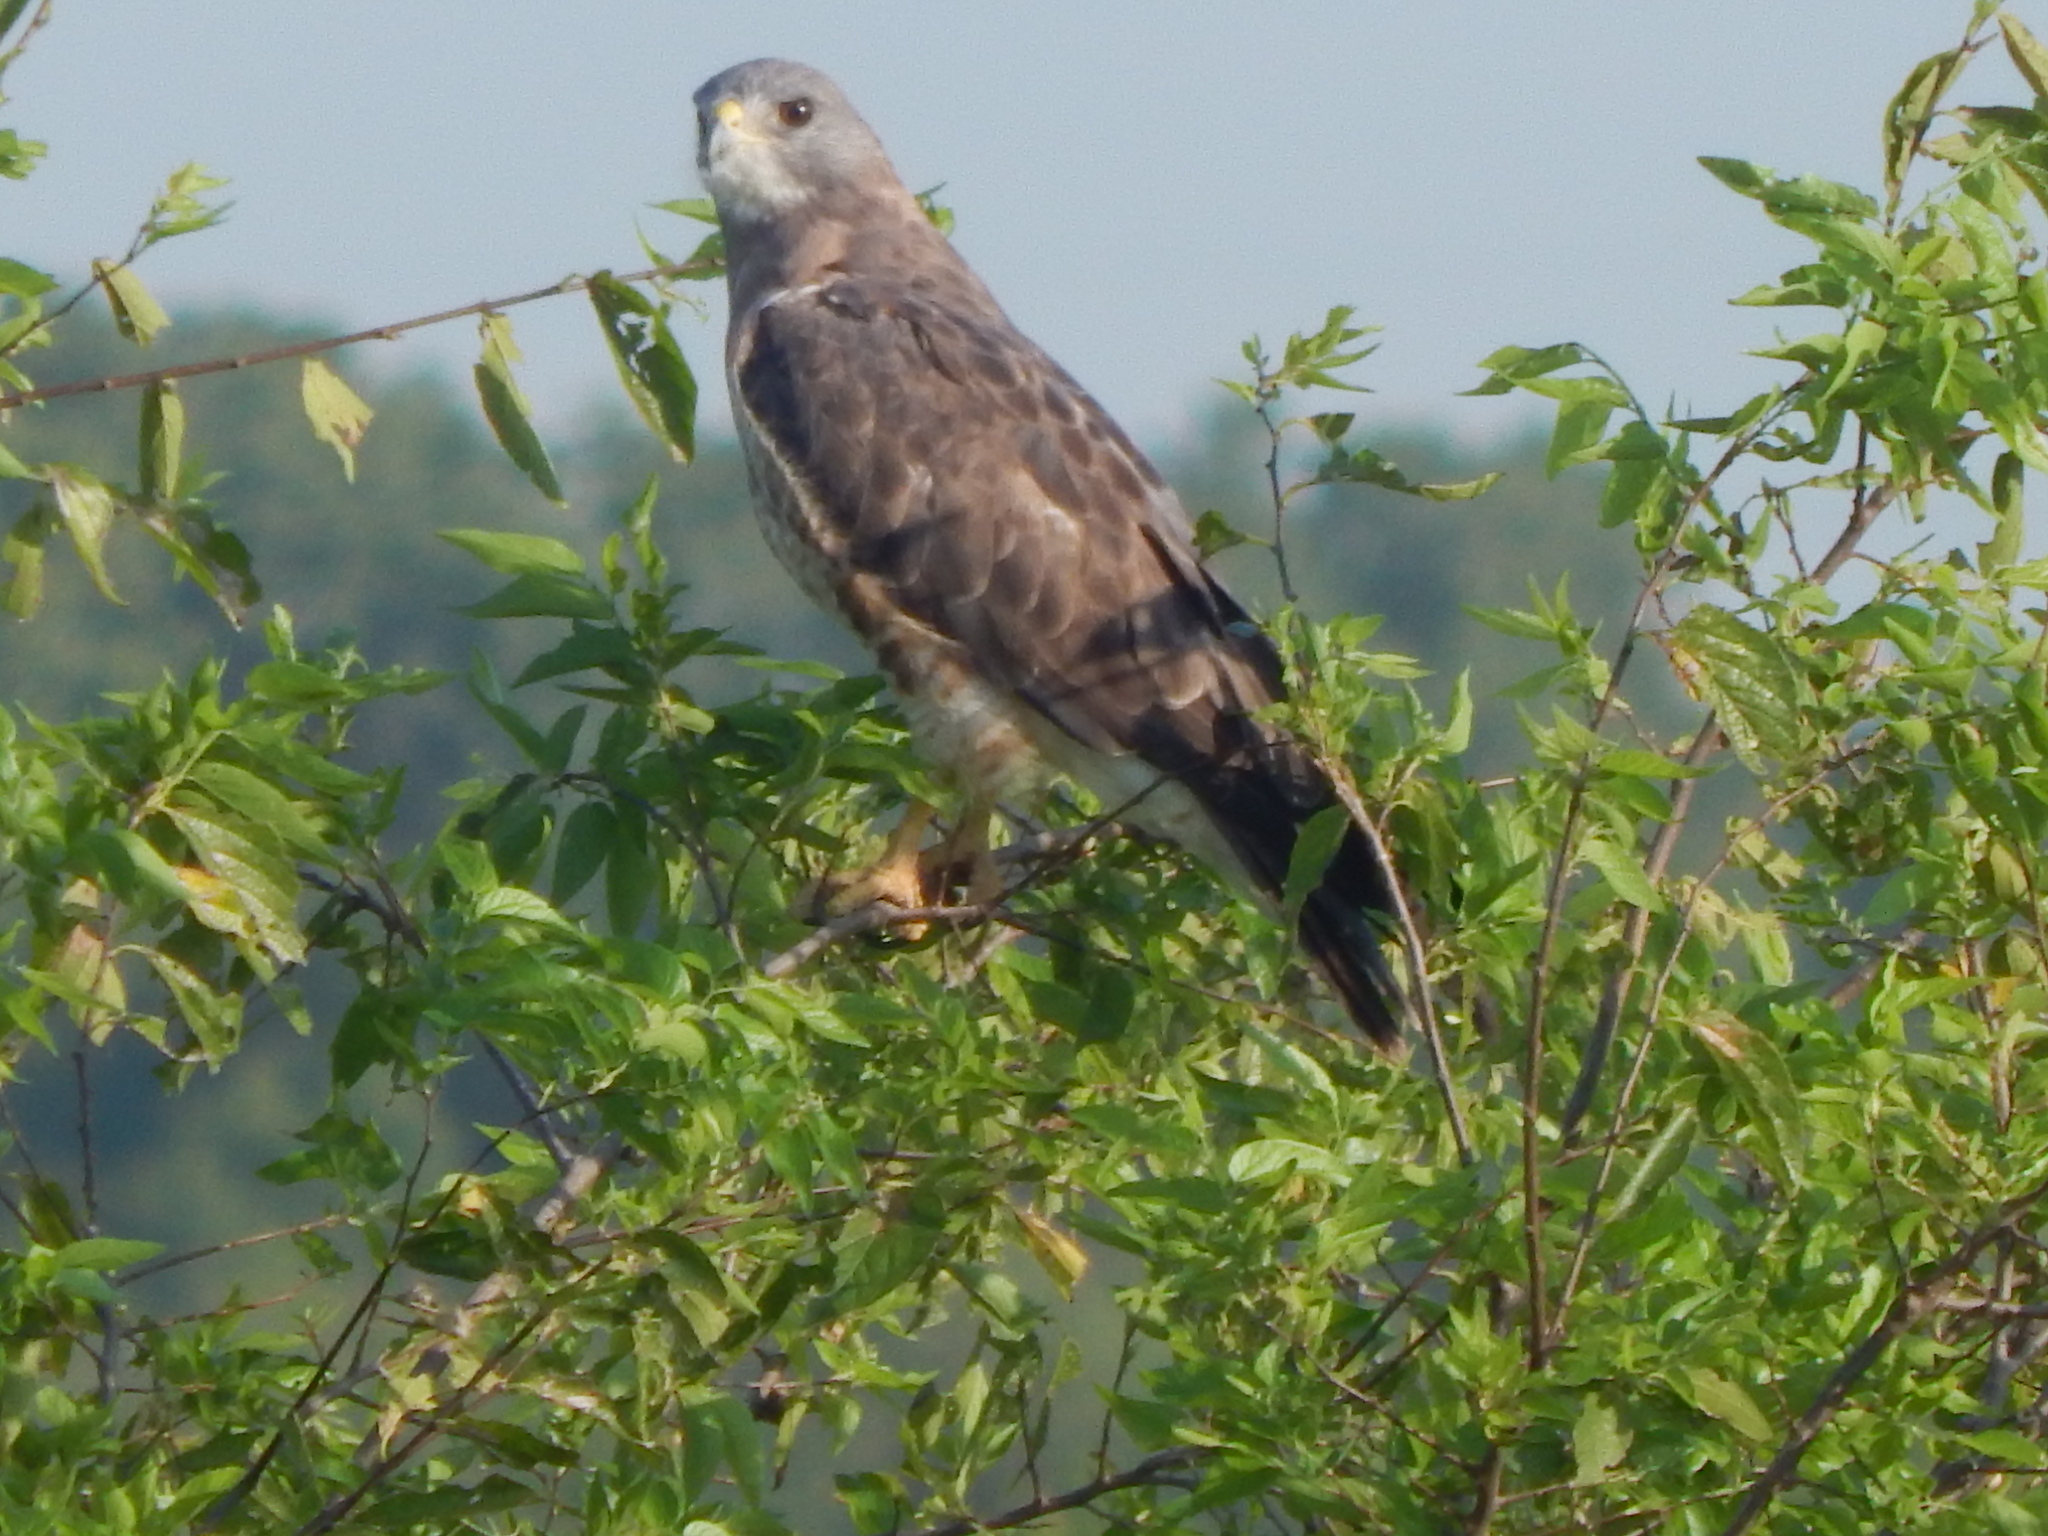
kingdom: Animalia
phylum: Chordata
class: Aves
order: Accipitriformes
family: Accipitridae
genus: Buteo
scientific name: Buteo swainsoni
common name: Swainson's hawk
